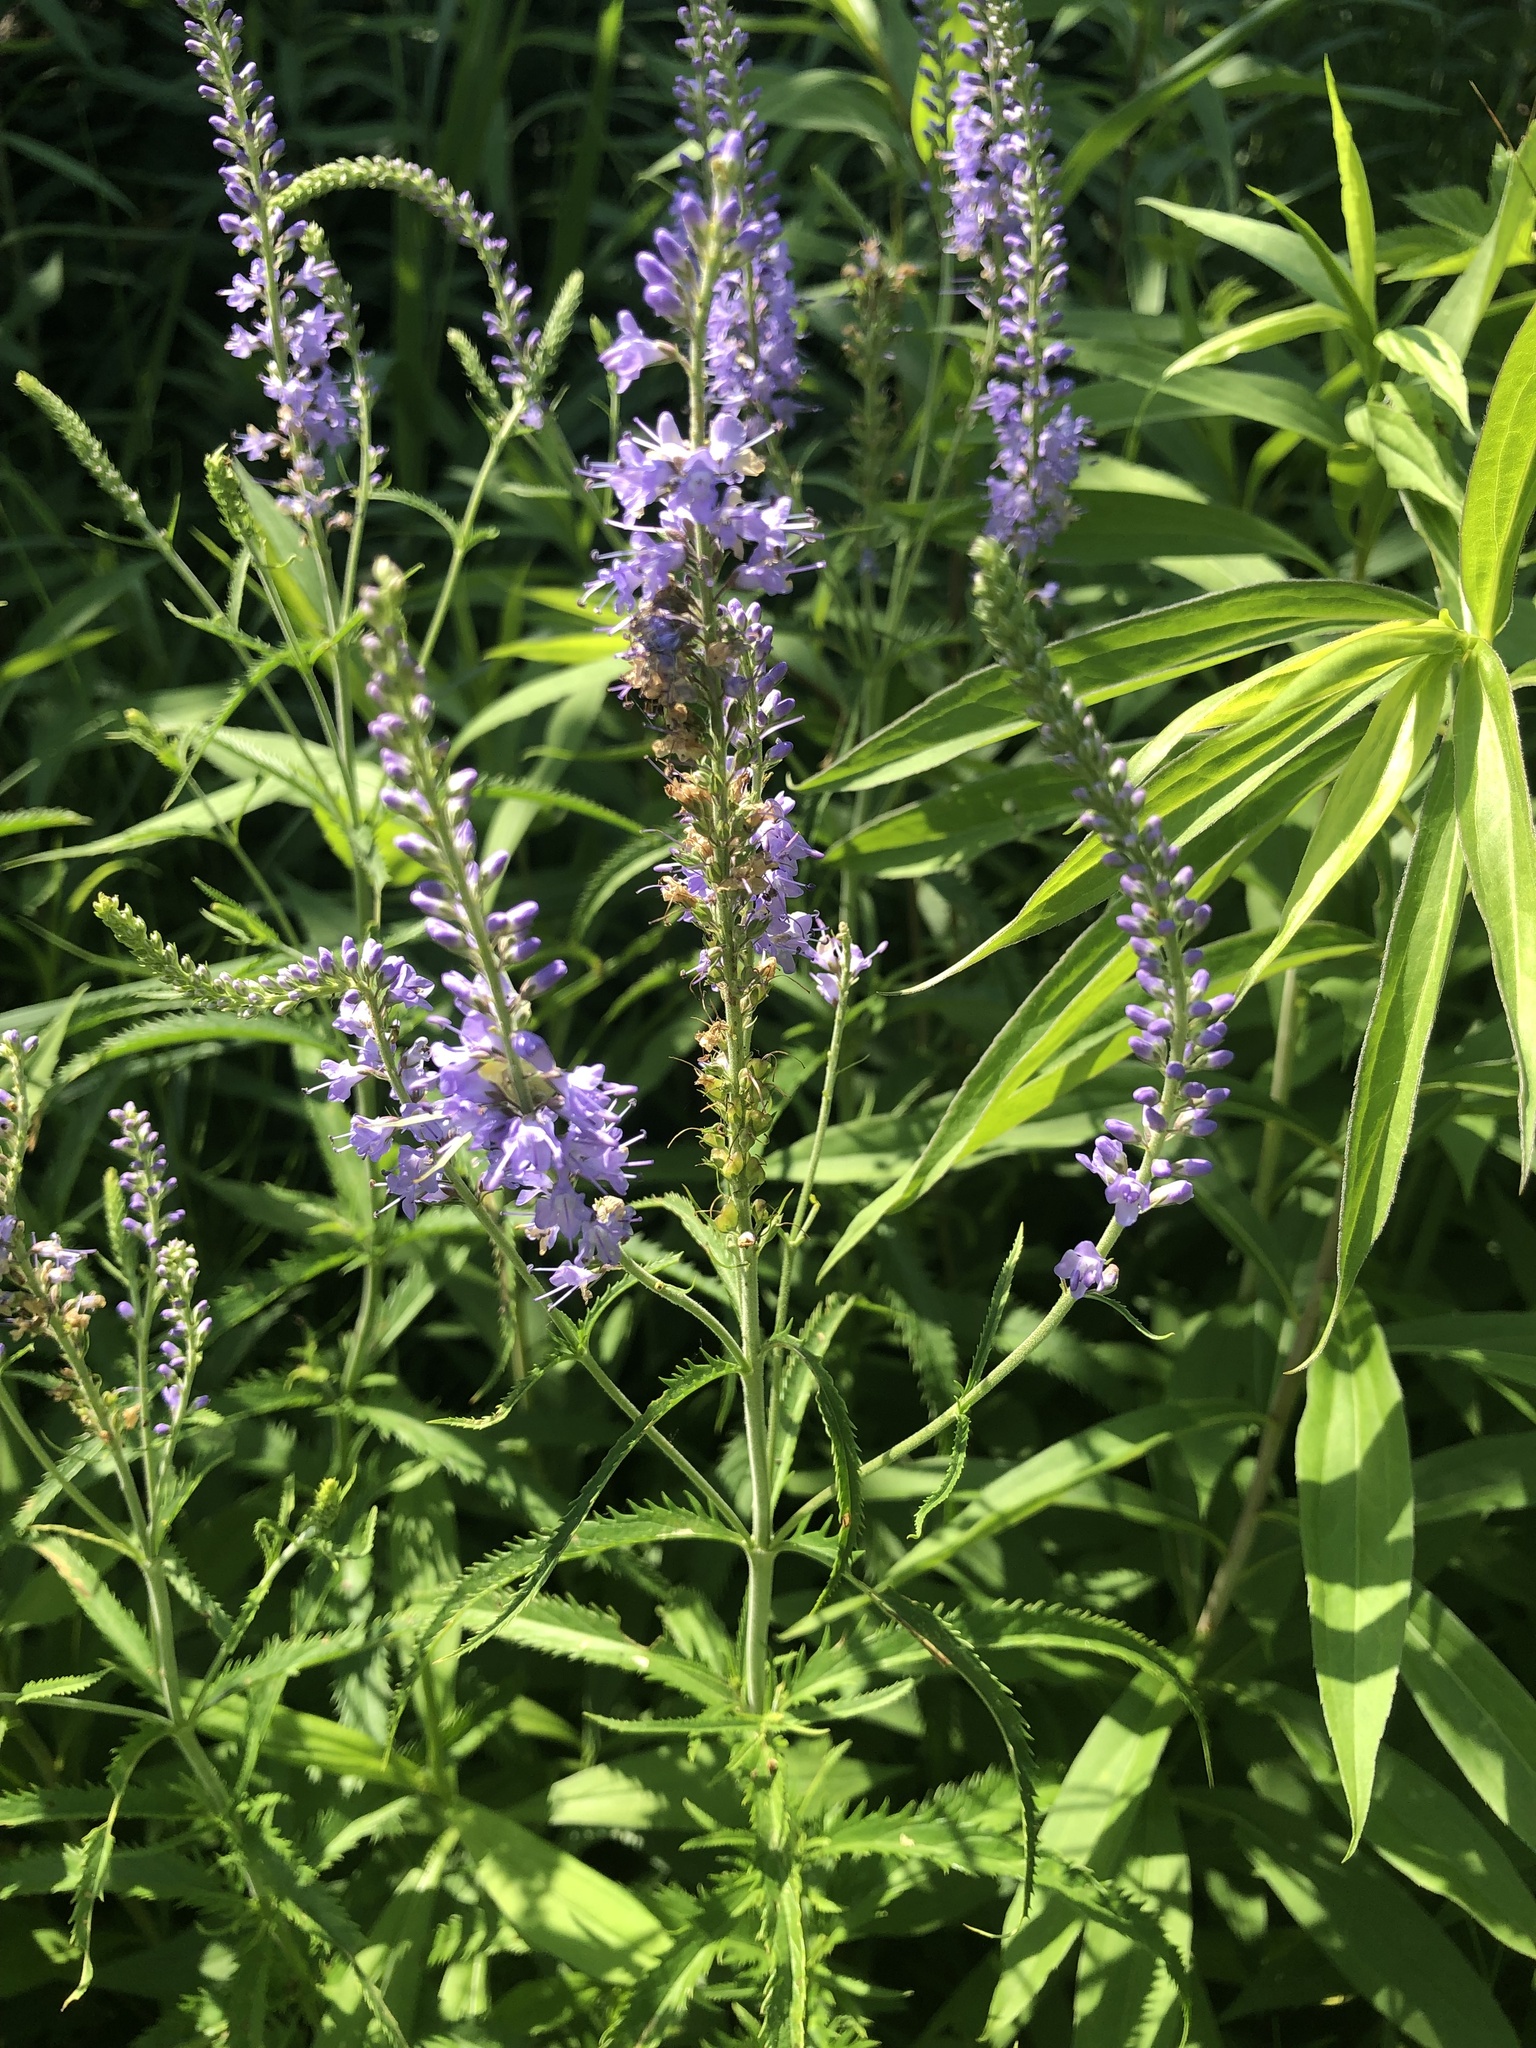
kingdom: Plantae
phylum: Tracheophyta
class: Magnoliopsida
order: Lamiales
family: Plantaginaceae
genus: Veronica
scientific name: Veronica longifolia
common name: Garden speedwell
